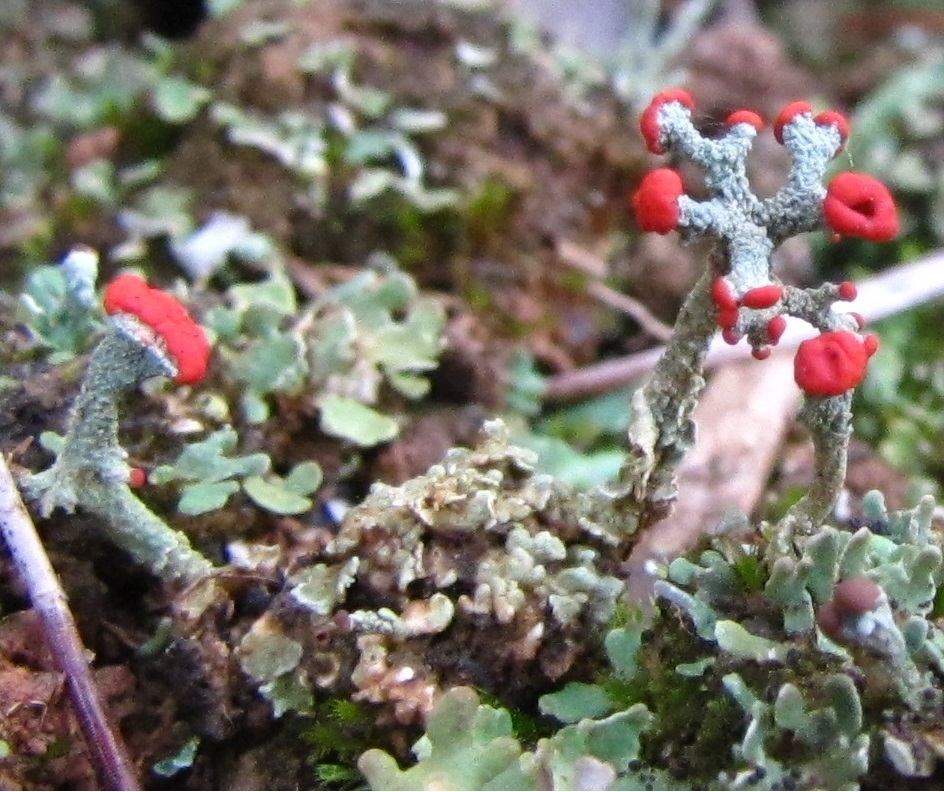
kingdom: Fungi
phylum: Ascomycota
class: Lecanoromycetes
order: Lecanorales
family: Cladoniaceae
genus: Cladonia
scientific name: Cladonia cristatella
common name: British soldier lichen
